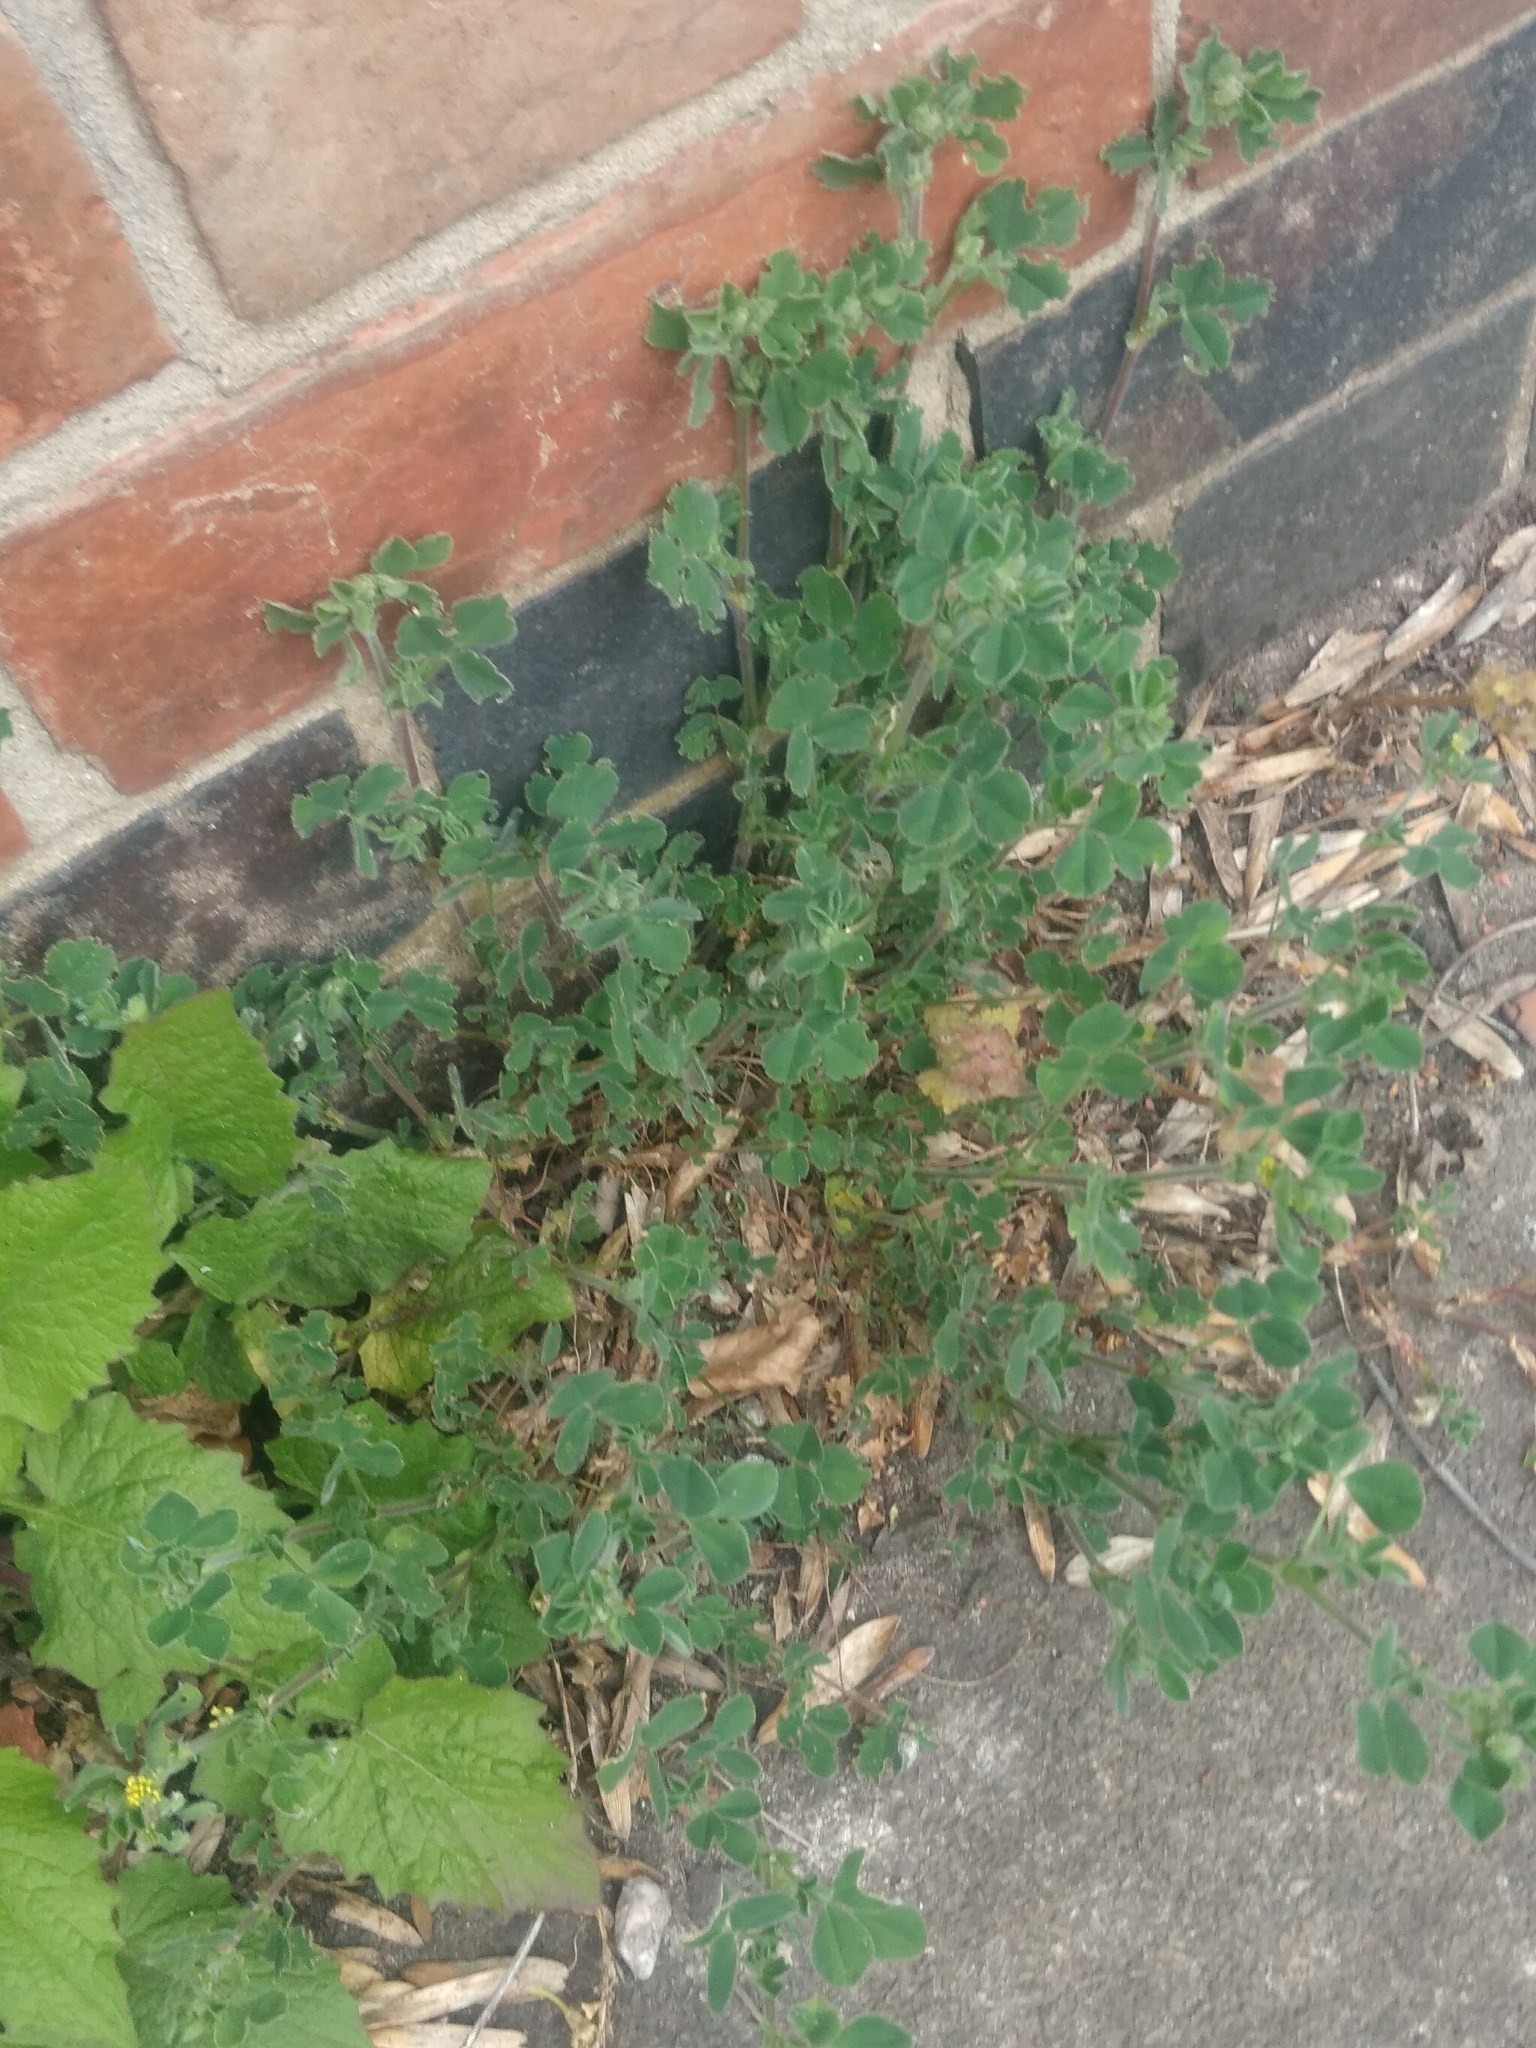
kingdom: Plantae
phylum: Tracheophyta
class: Magnoliopsida
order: Fabales
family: Fabaceae
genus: Medicago
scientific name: Medicago lupulina
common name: Black medick
